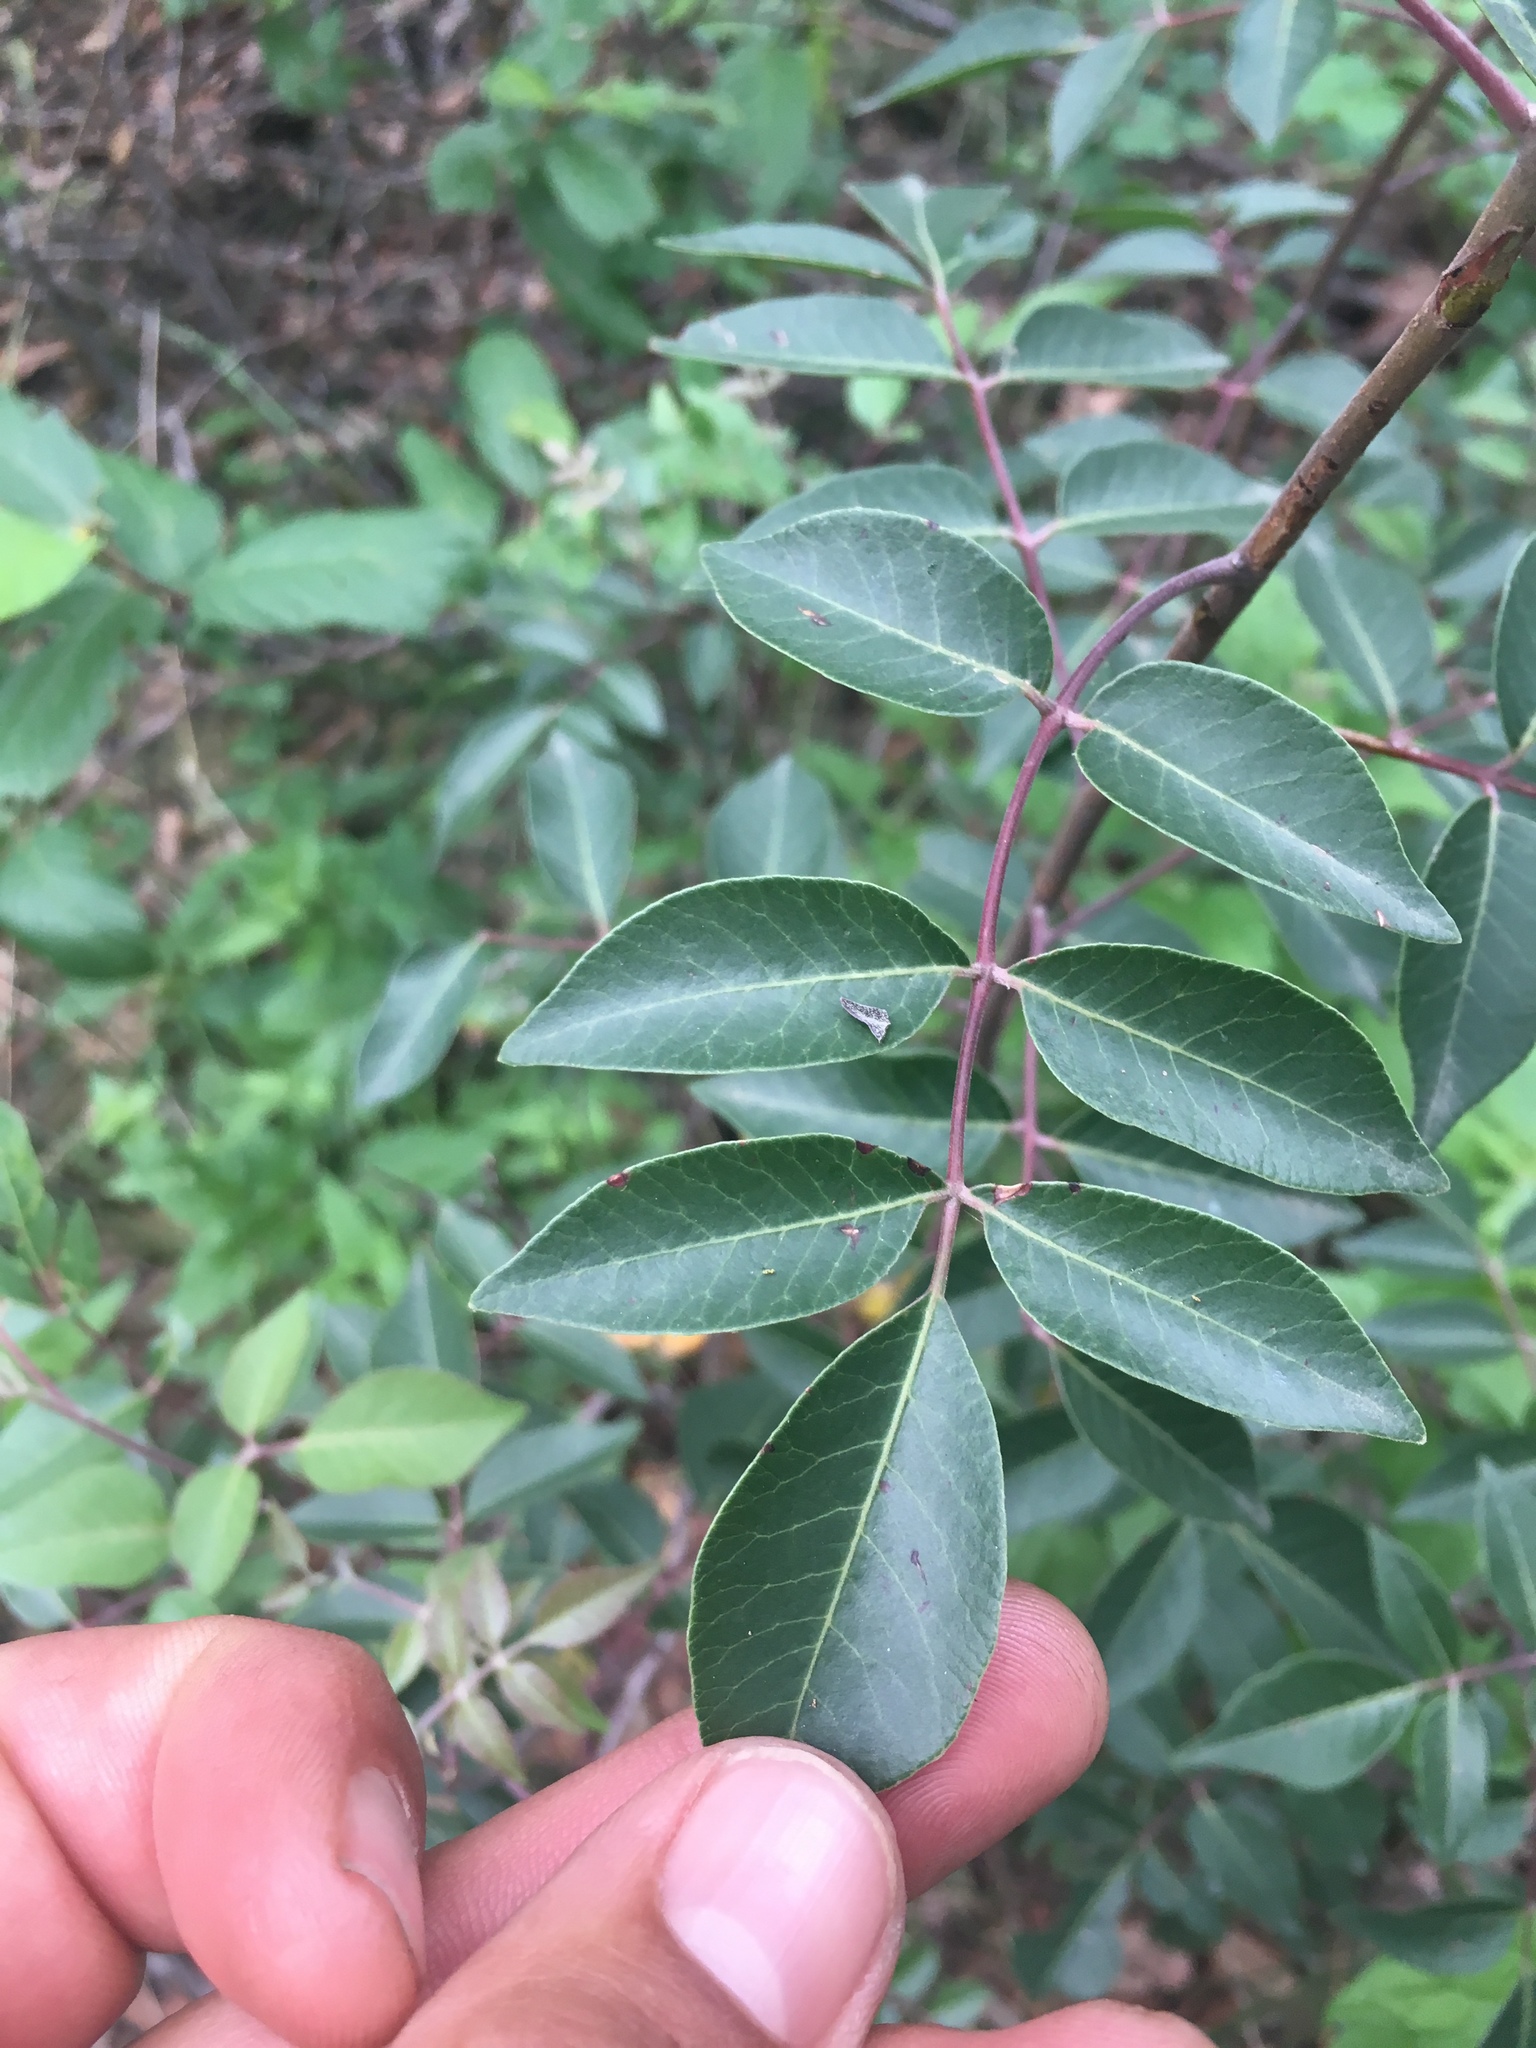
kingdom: Plantae
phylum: Tracheophyta
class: Magnoliopsida
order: Sapindales
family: Anacardiaceae
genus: Rhus
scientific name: Rhus virens
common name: Evergreen sumac
